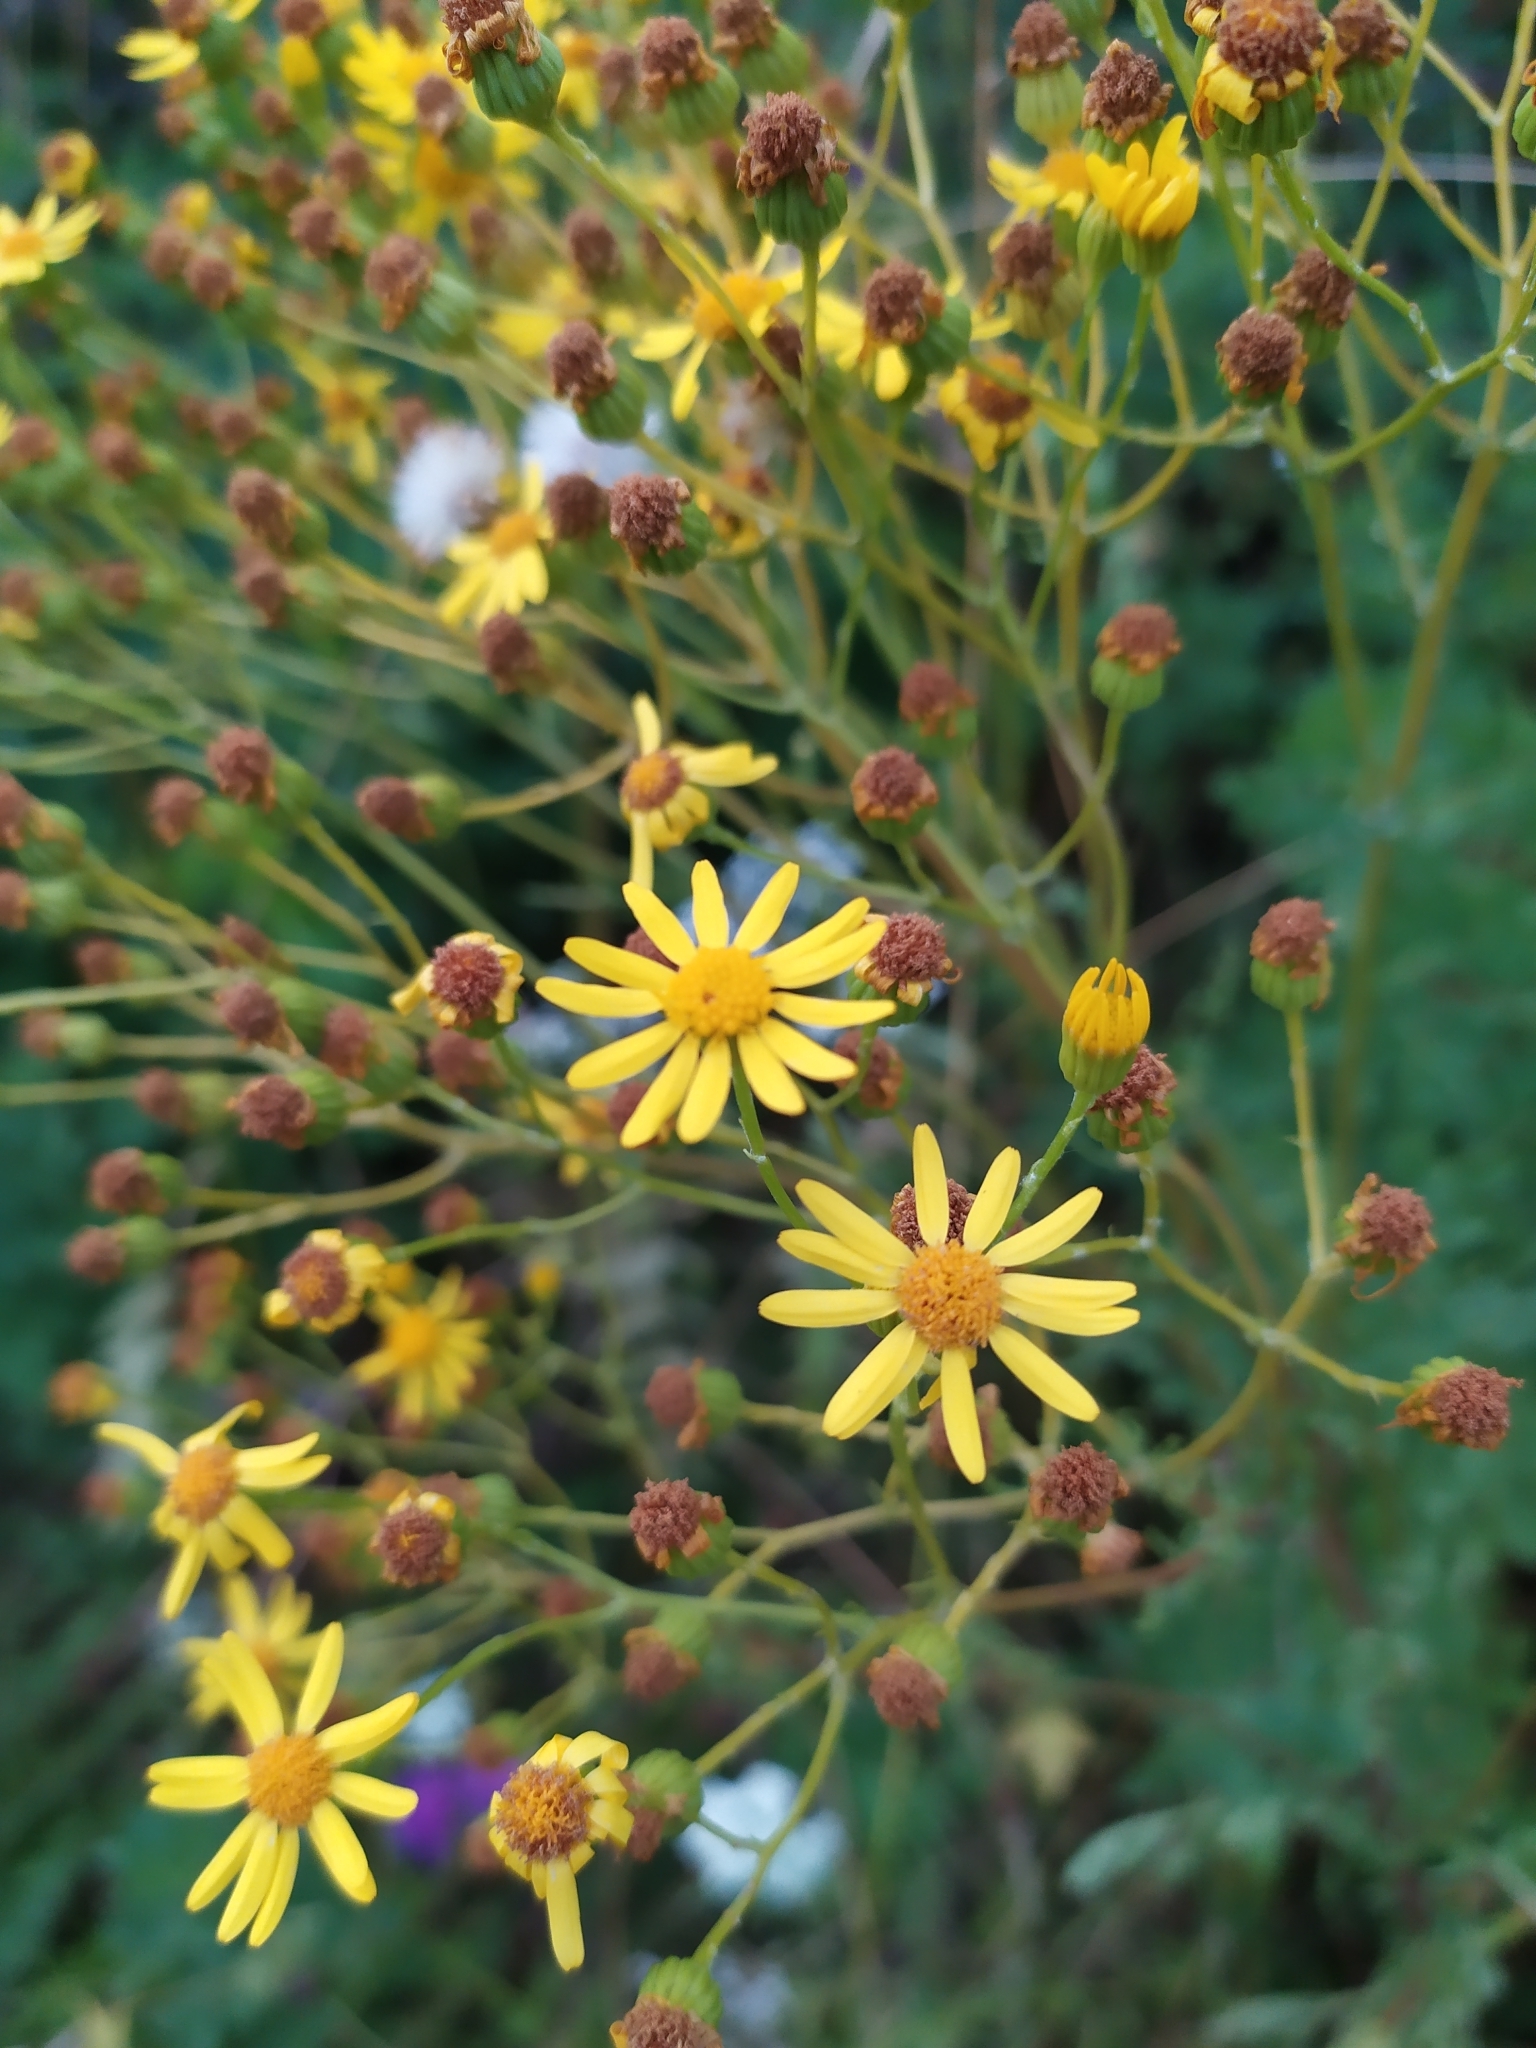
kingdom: Plantae
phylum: Tracheophyta
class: Magnoliopsida
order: Asterales
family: Asteraceae
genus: Jacobaea
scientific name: Jacobaea vulgaris
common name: Stinking willie
